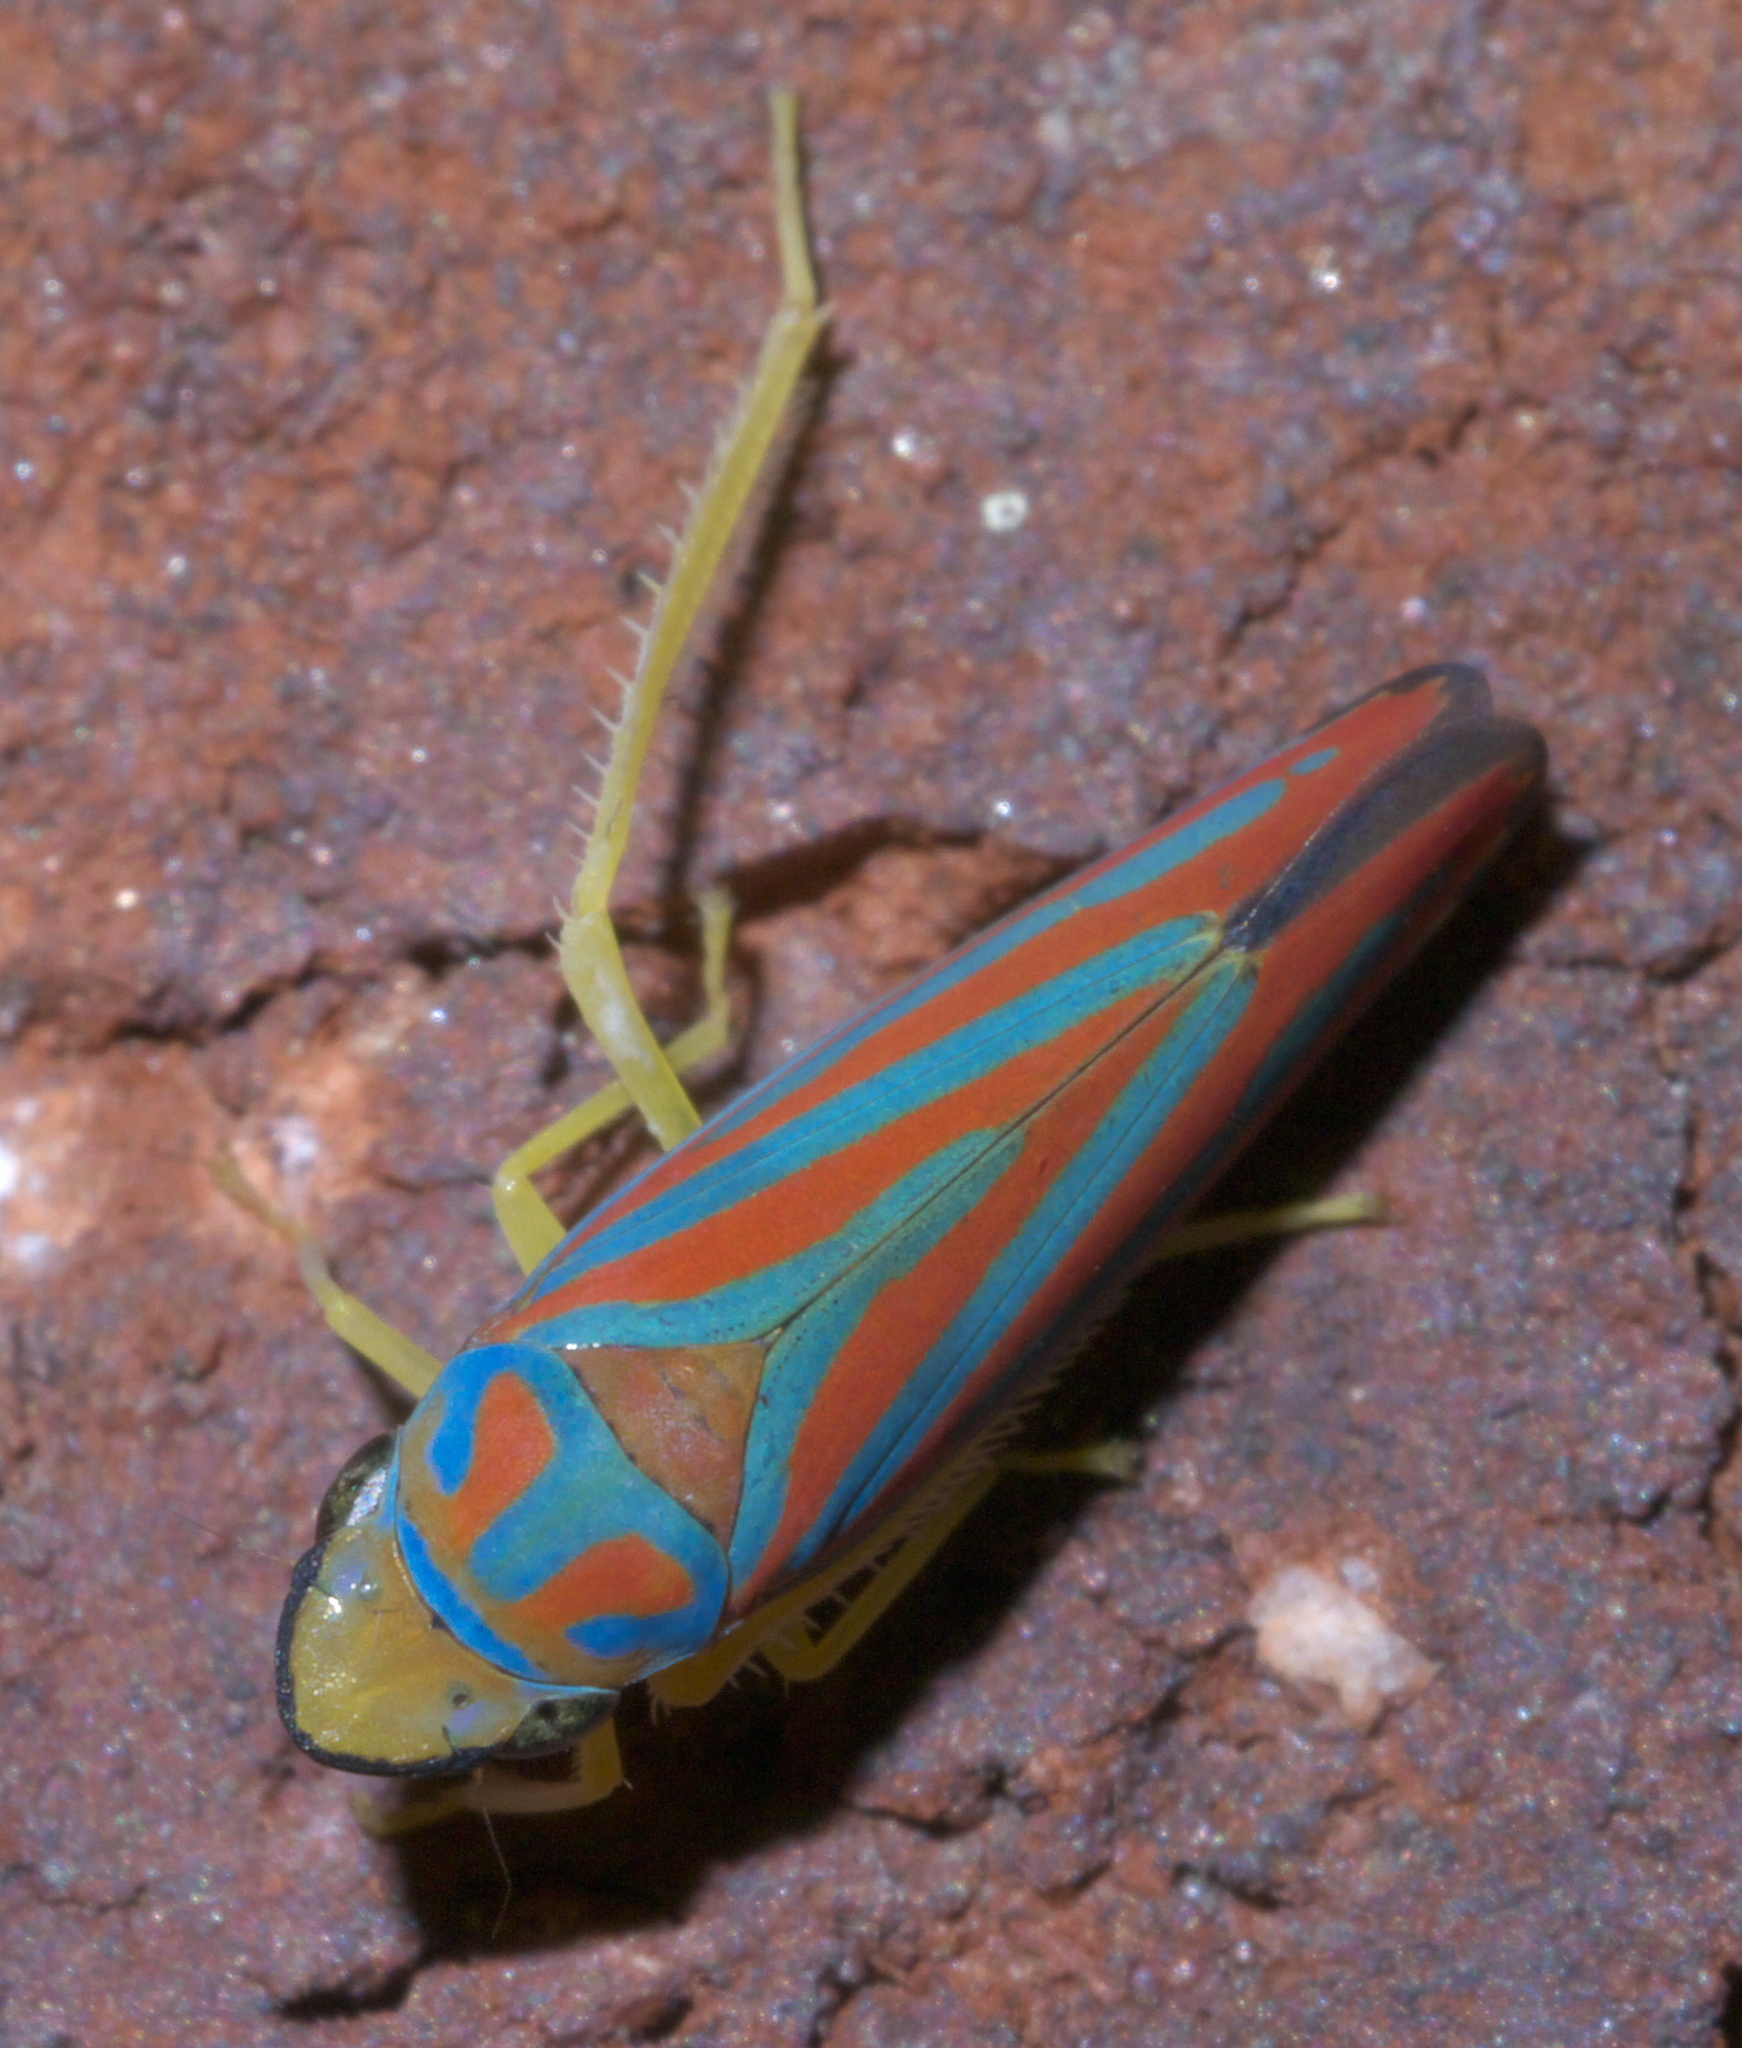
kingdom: Animalia
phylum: Arthropoda
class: Insecta
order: Hemiptera
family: Cicadellidae
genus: Graphocephala
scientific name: Graphocephala coccinea
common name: Candy-striped leafhopper
